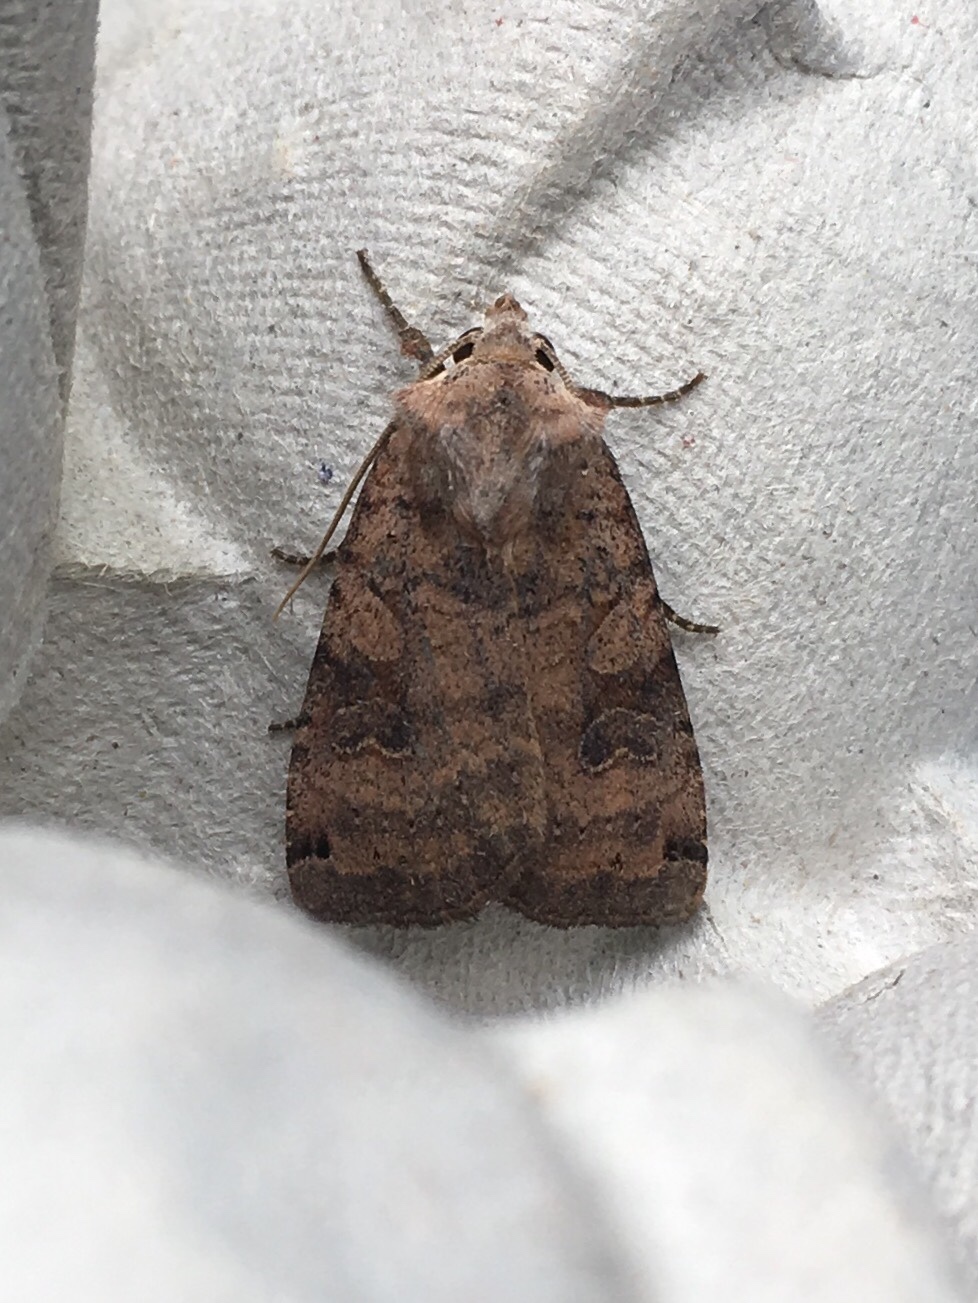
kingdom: Animalia
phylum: Arthropoda
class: Insecta
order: Lepidoptera
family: Noctuidae
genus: Xestia
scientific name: Xestia smithii
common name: Smith's dart
